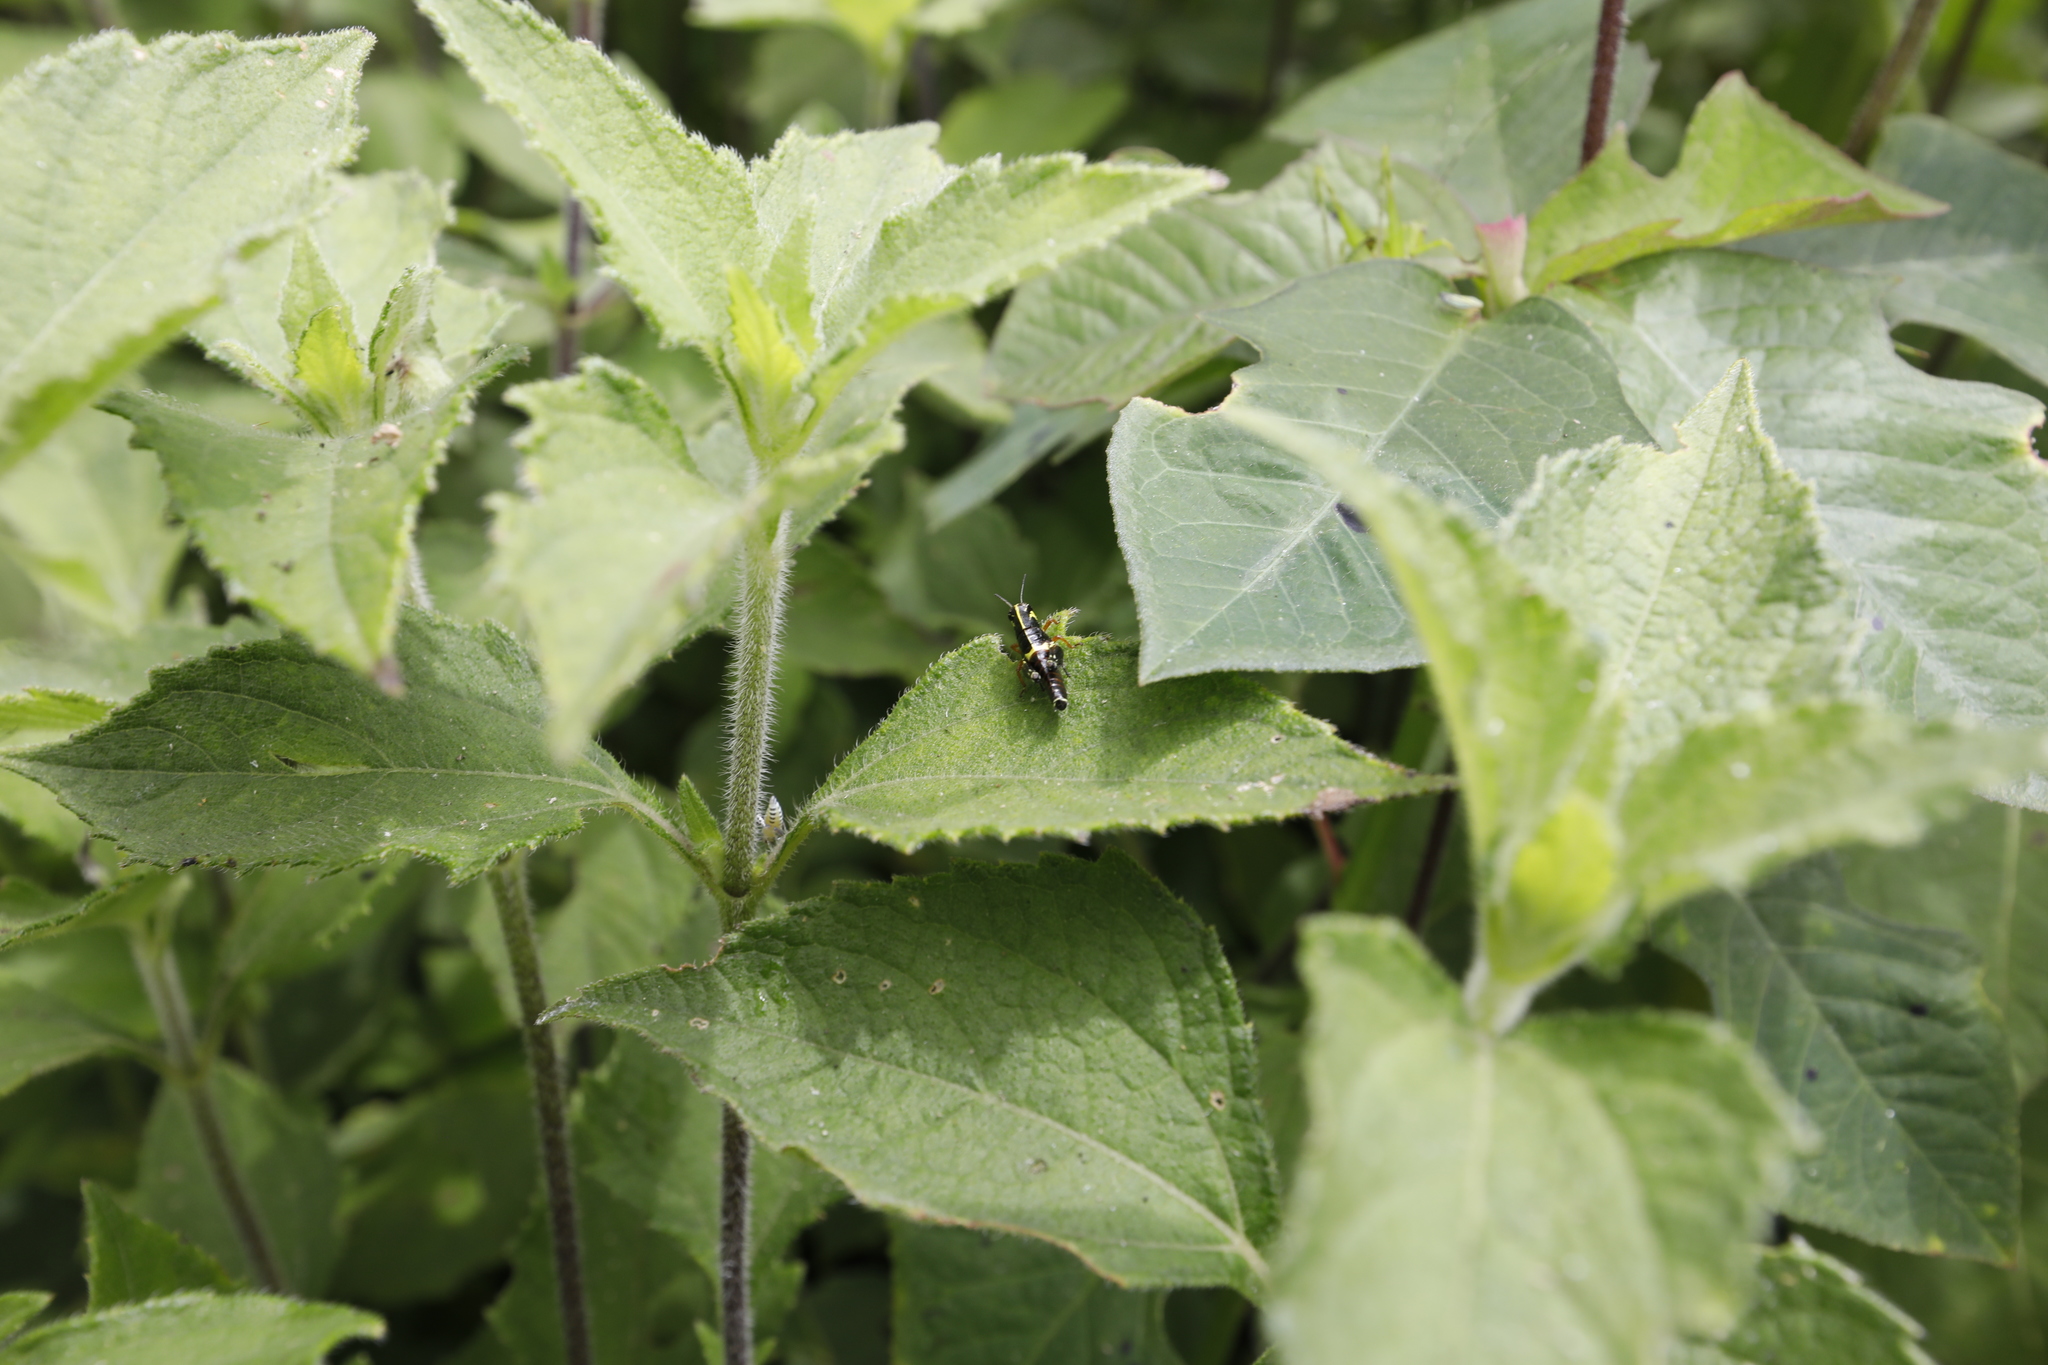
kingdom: Animalia
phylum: Arthropoda
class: Insecta
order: Orthoptera
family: Acrididae
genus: Aidemona
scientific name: Aidemona azteca
